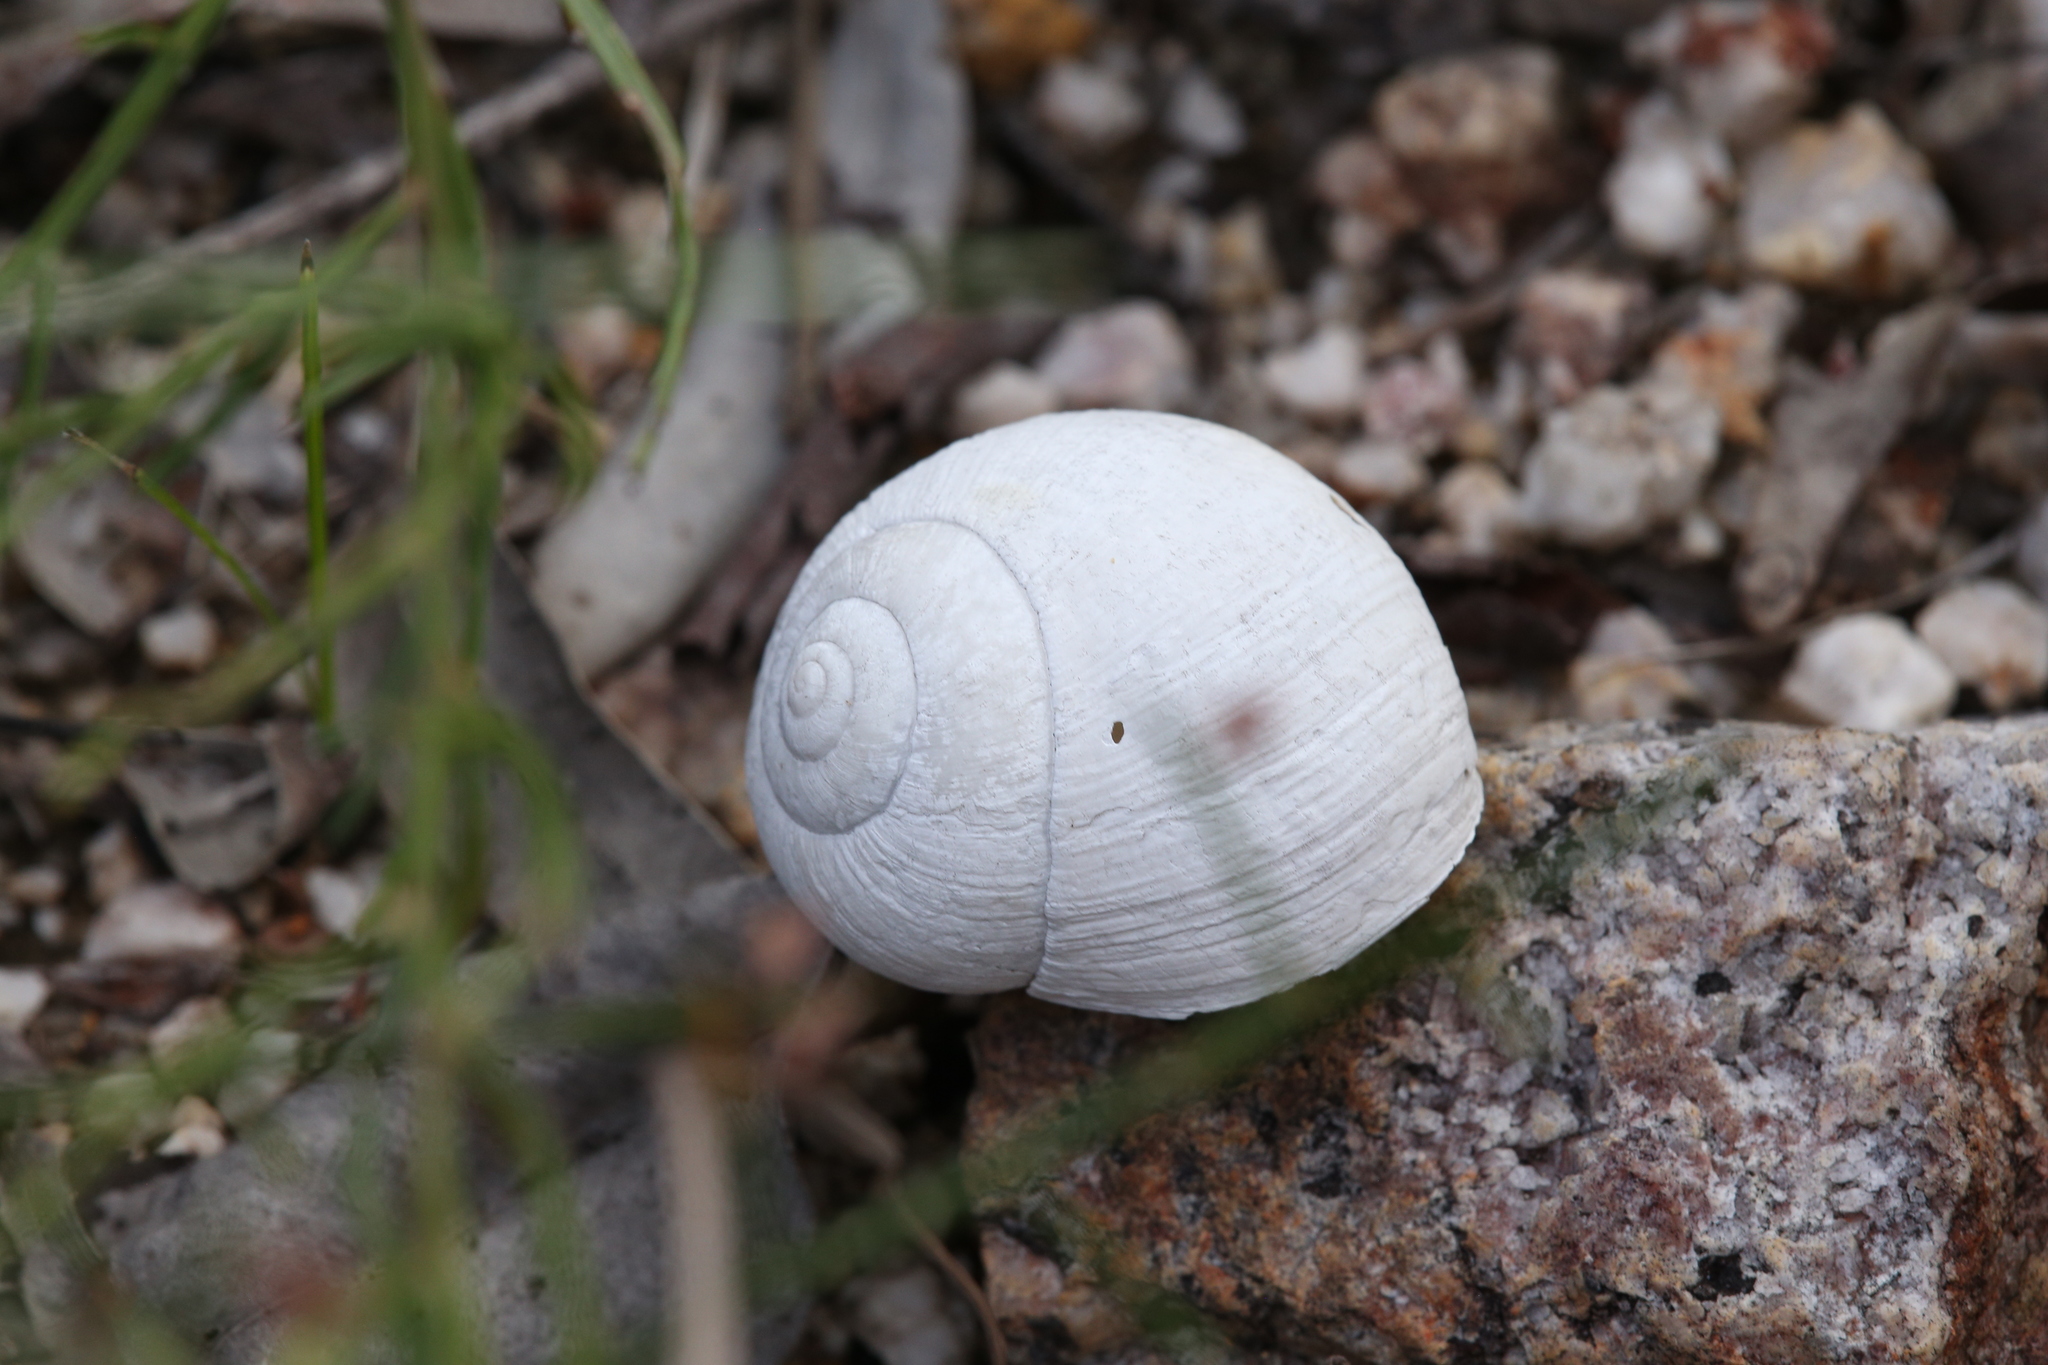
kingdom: Animalia
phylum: Mollusca
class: Gastropoda
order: Stylommatophora
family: Camaenidae
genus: Xanthomelon
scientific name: Xanthomelon saginatum
